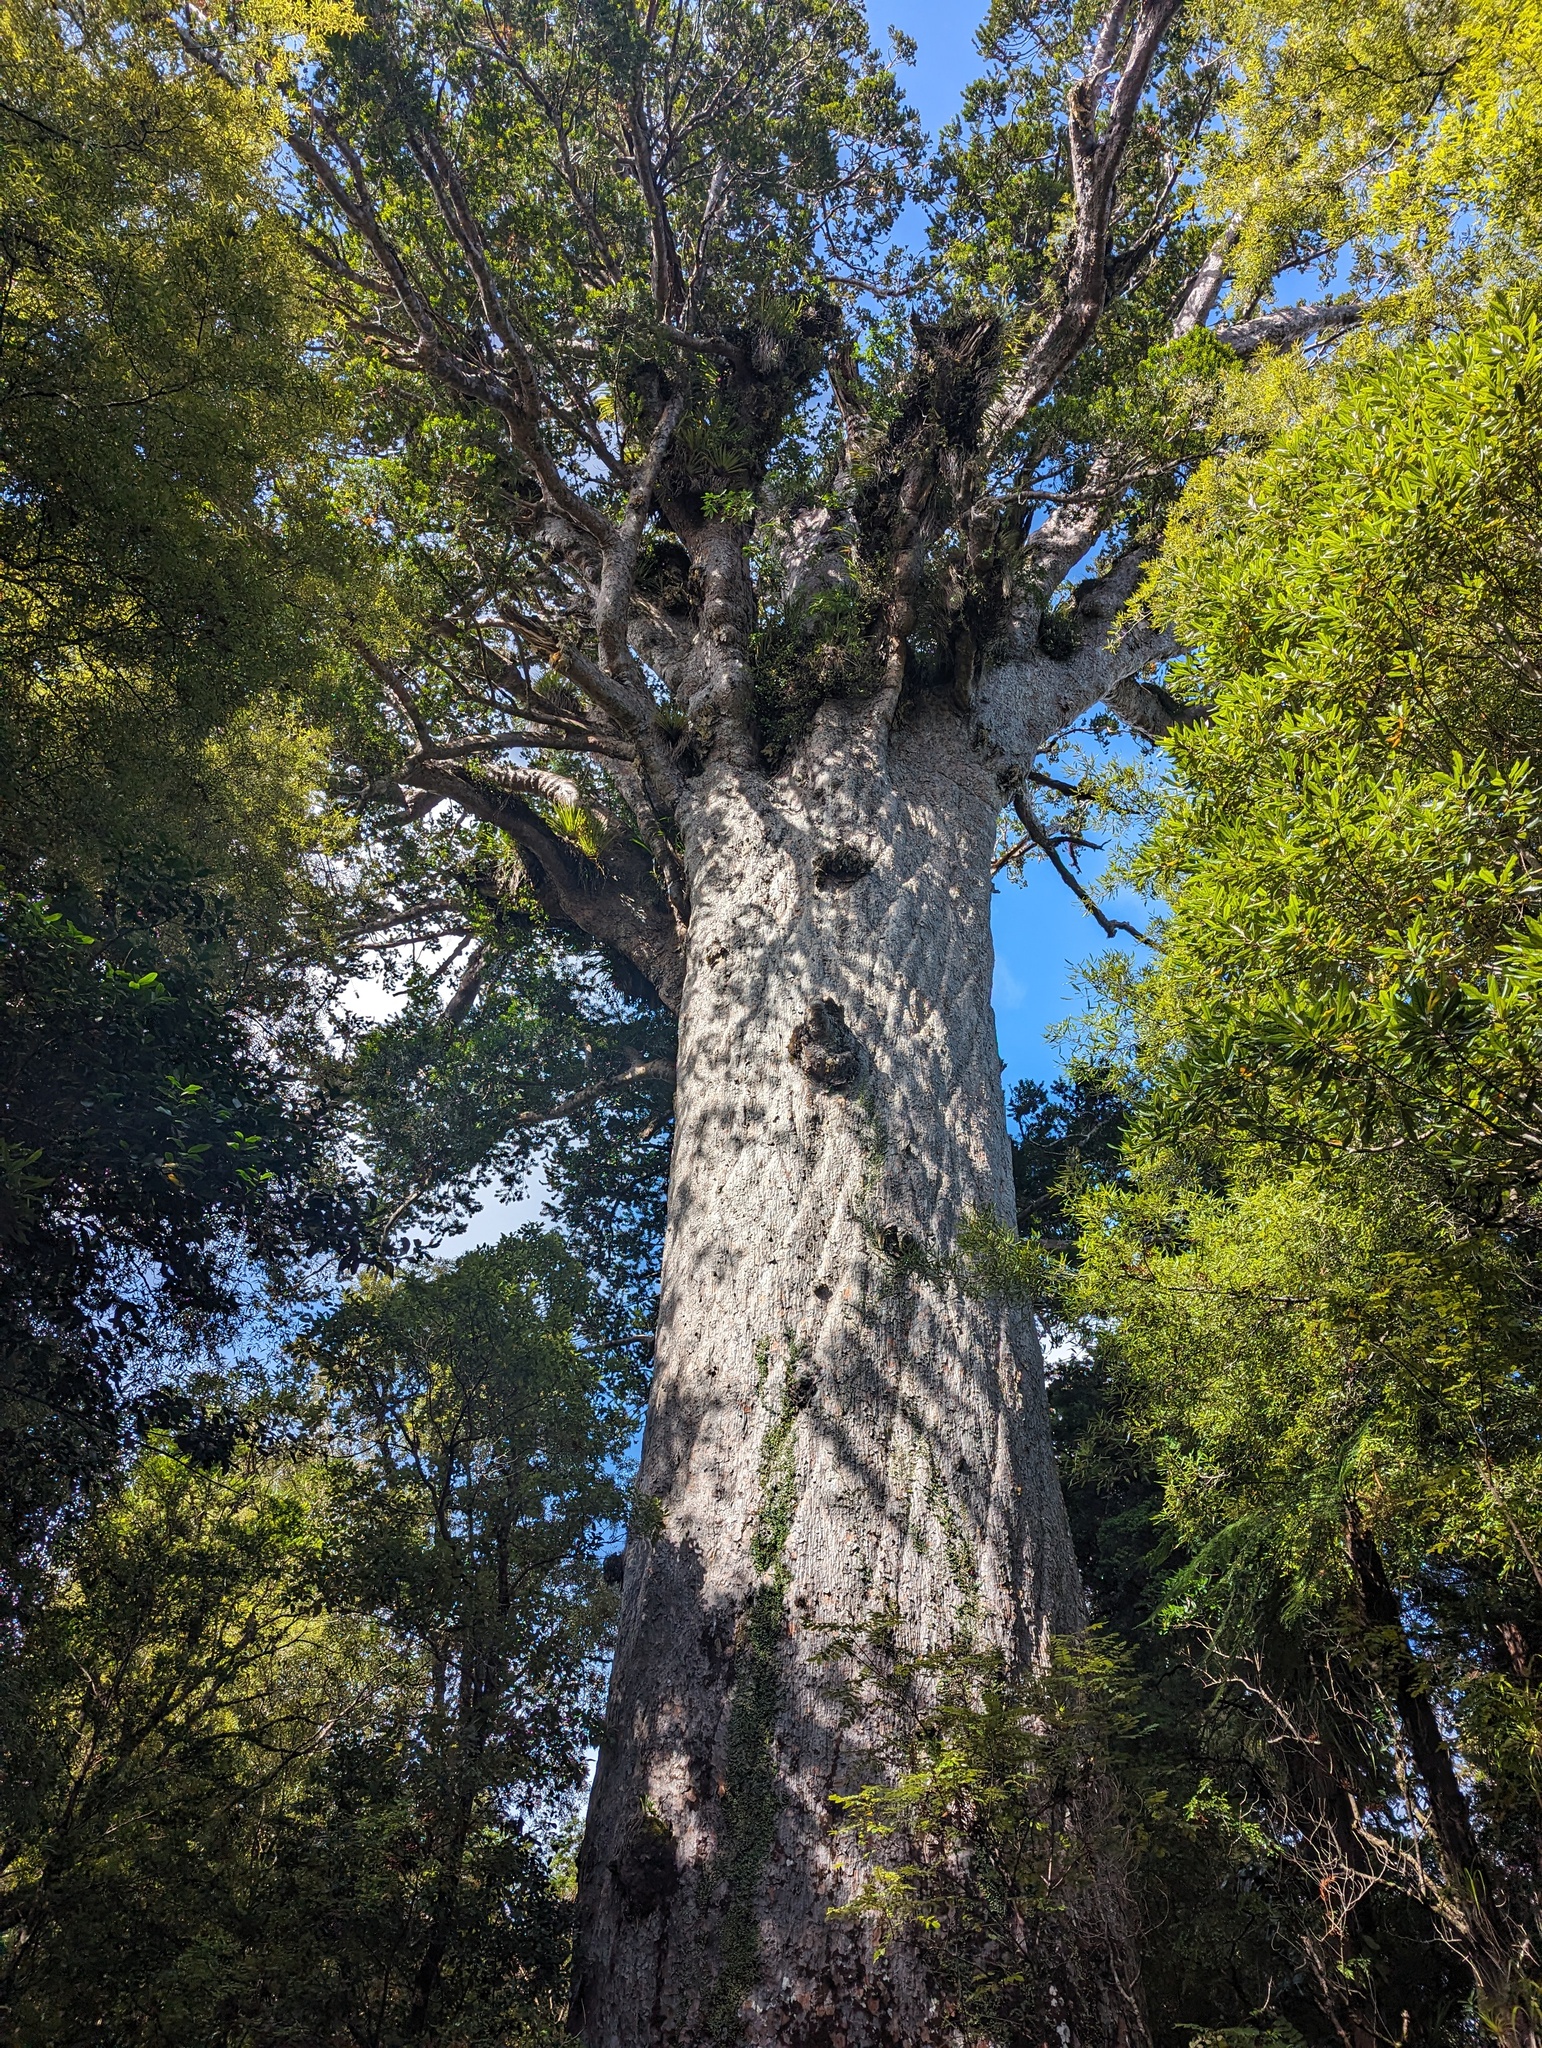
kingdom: Plantae
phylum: Tracheophyta
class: Pinopsida
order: Pinales
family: Araucariaceae
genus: Agathis
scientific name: Agathis australis
